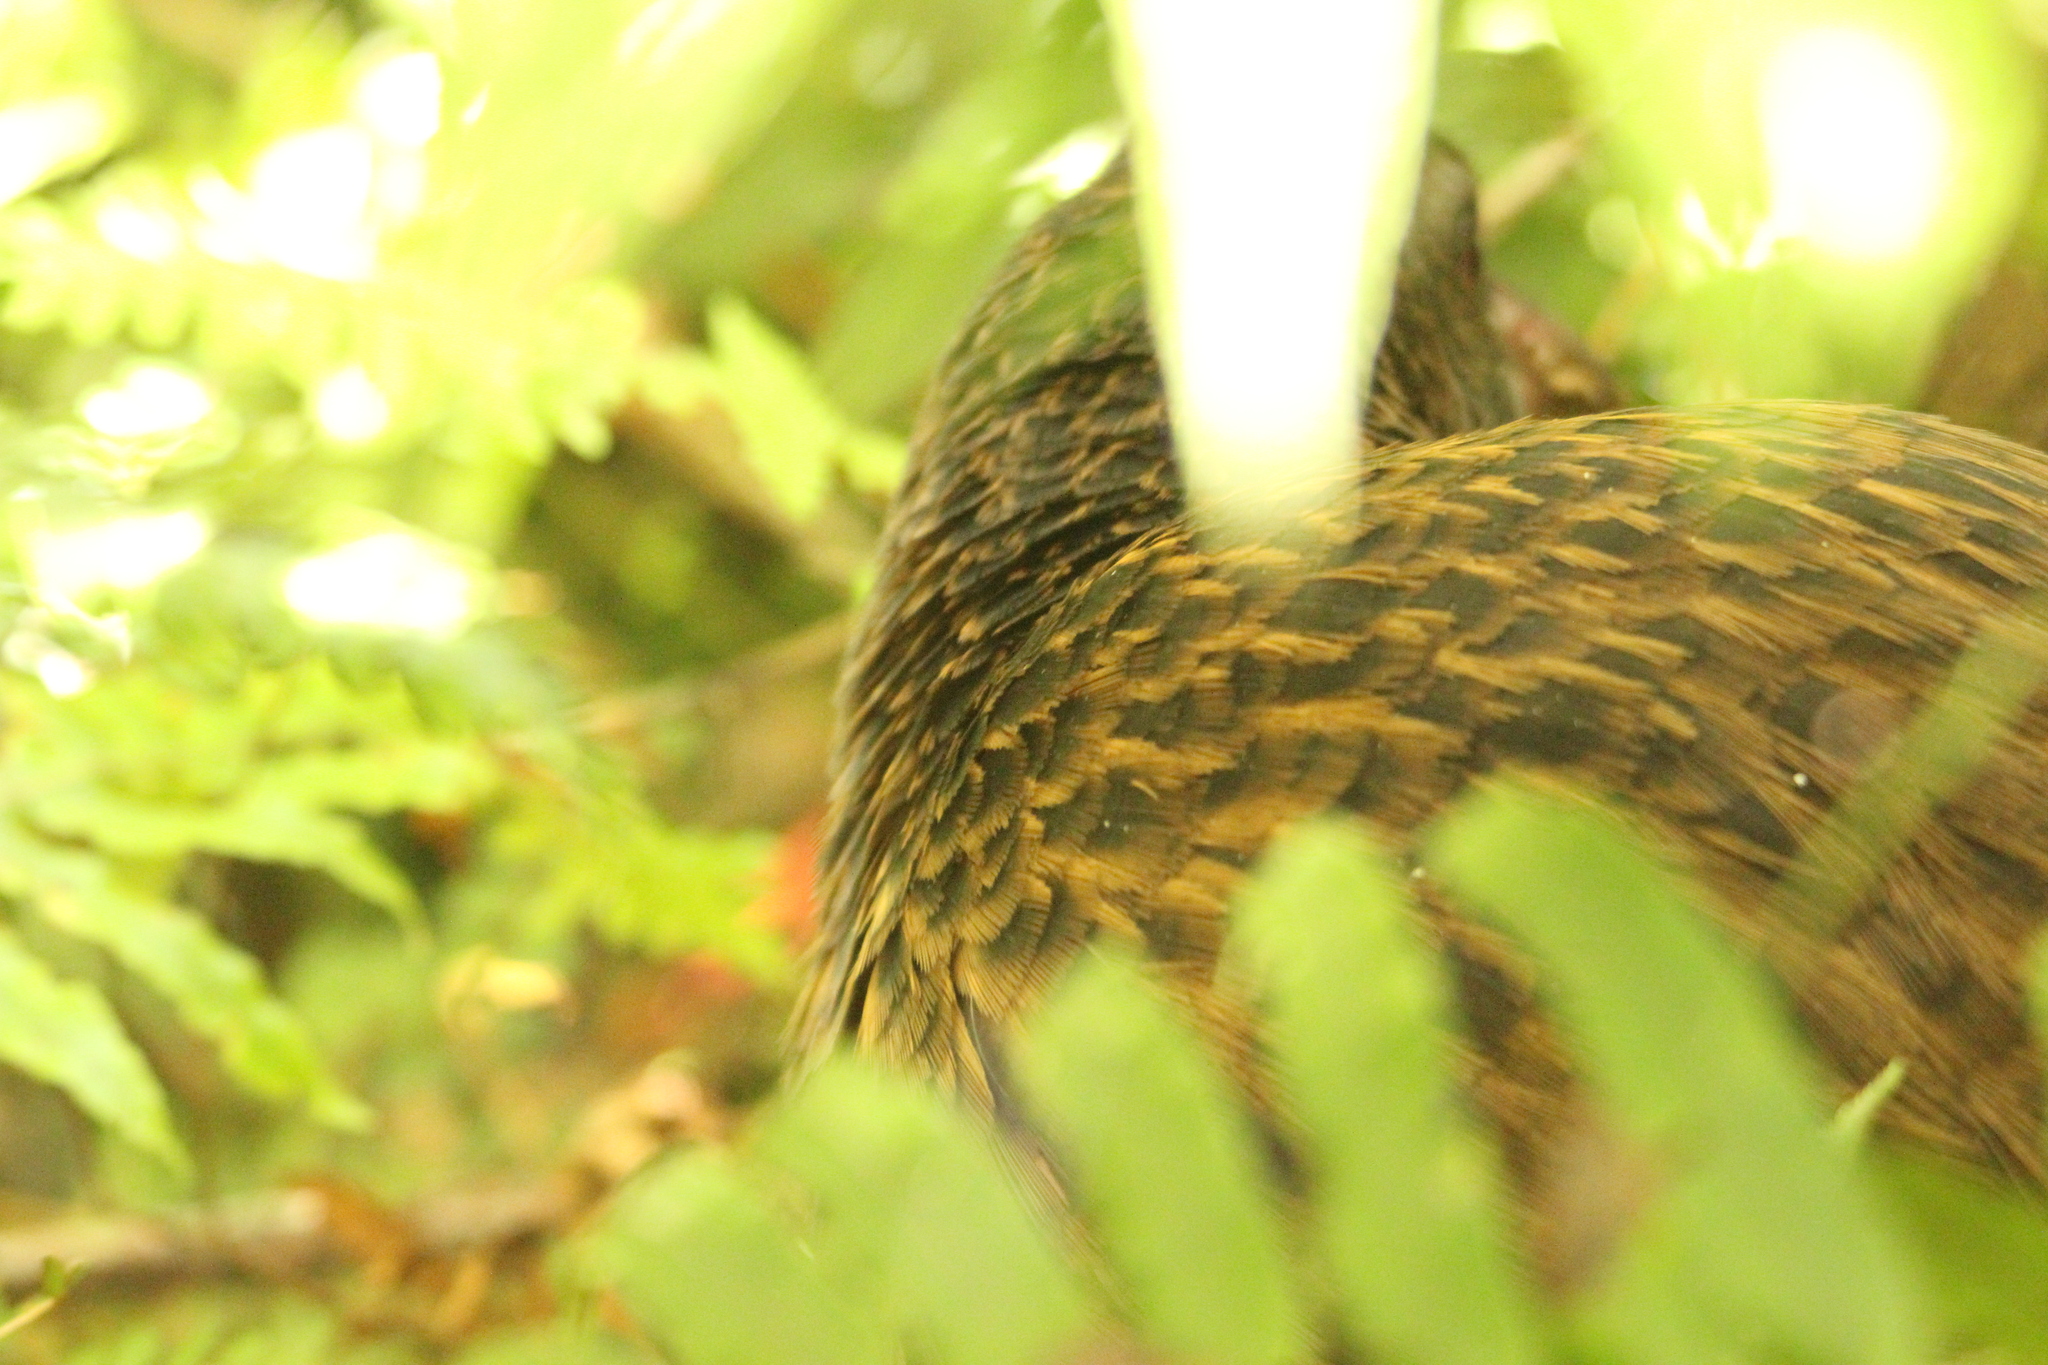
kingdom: Animalia
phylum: Chordata
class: Aves
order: Gruiformes
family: Rallidae
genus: Gallirallus
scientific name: Gallirallus australis
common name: Weka
